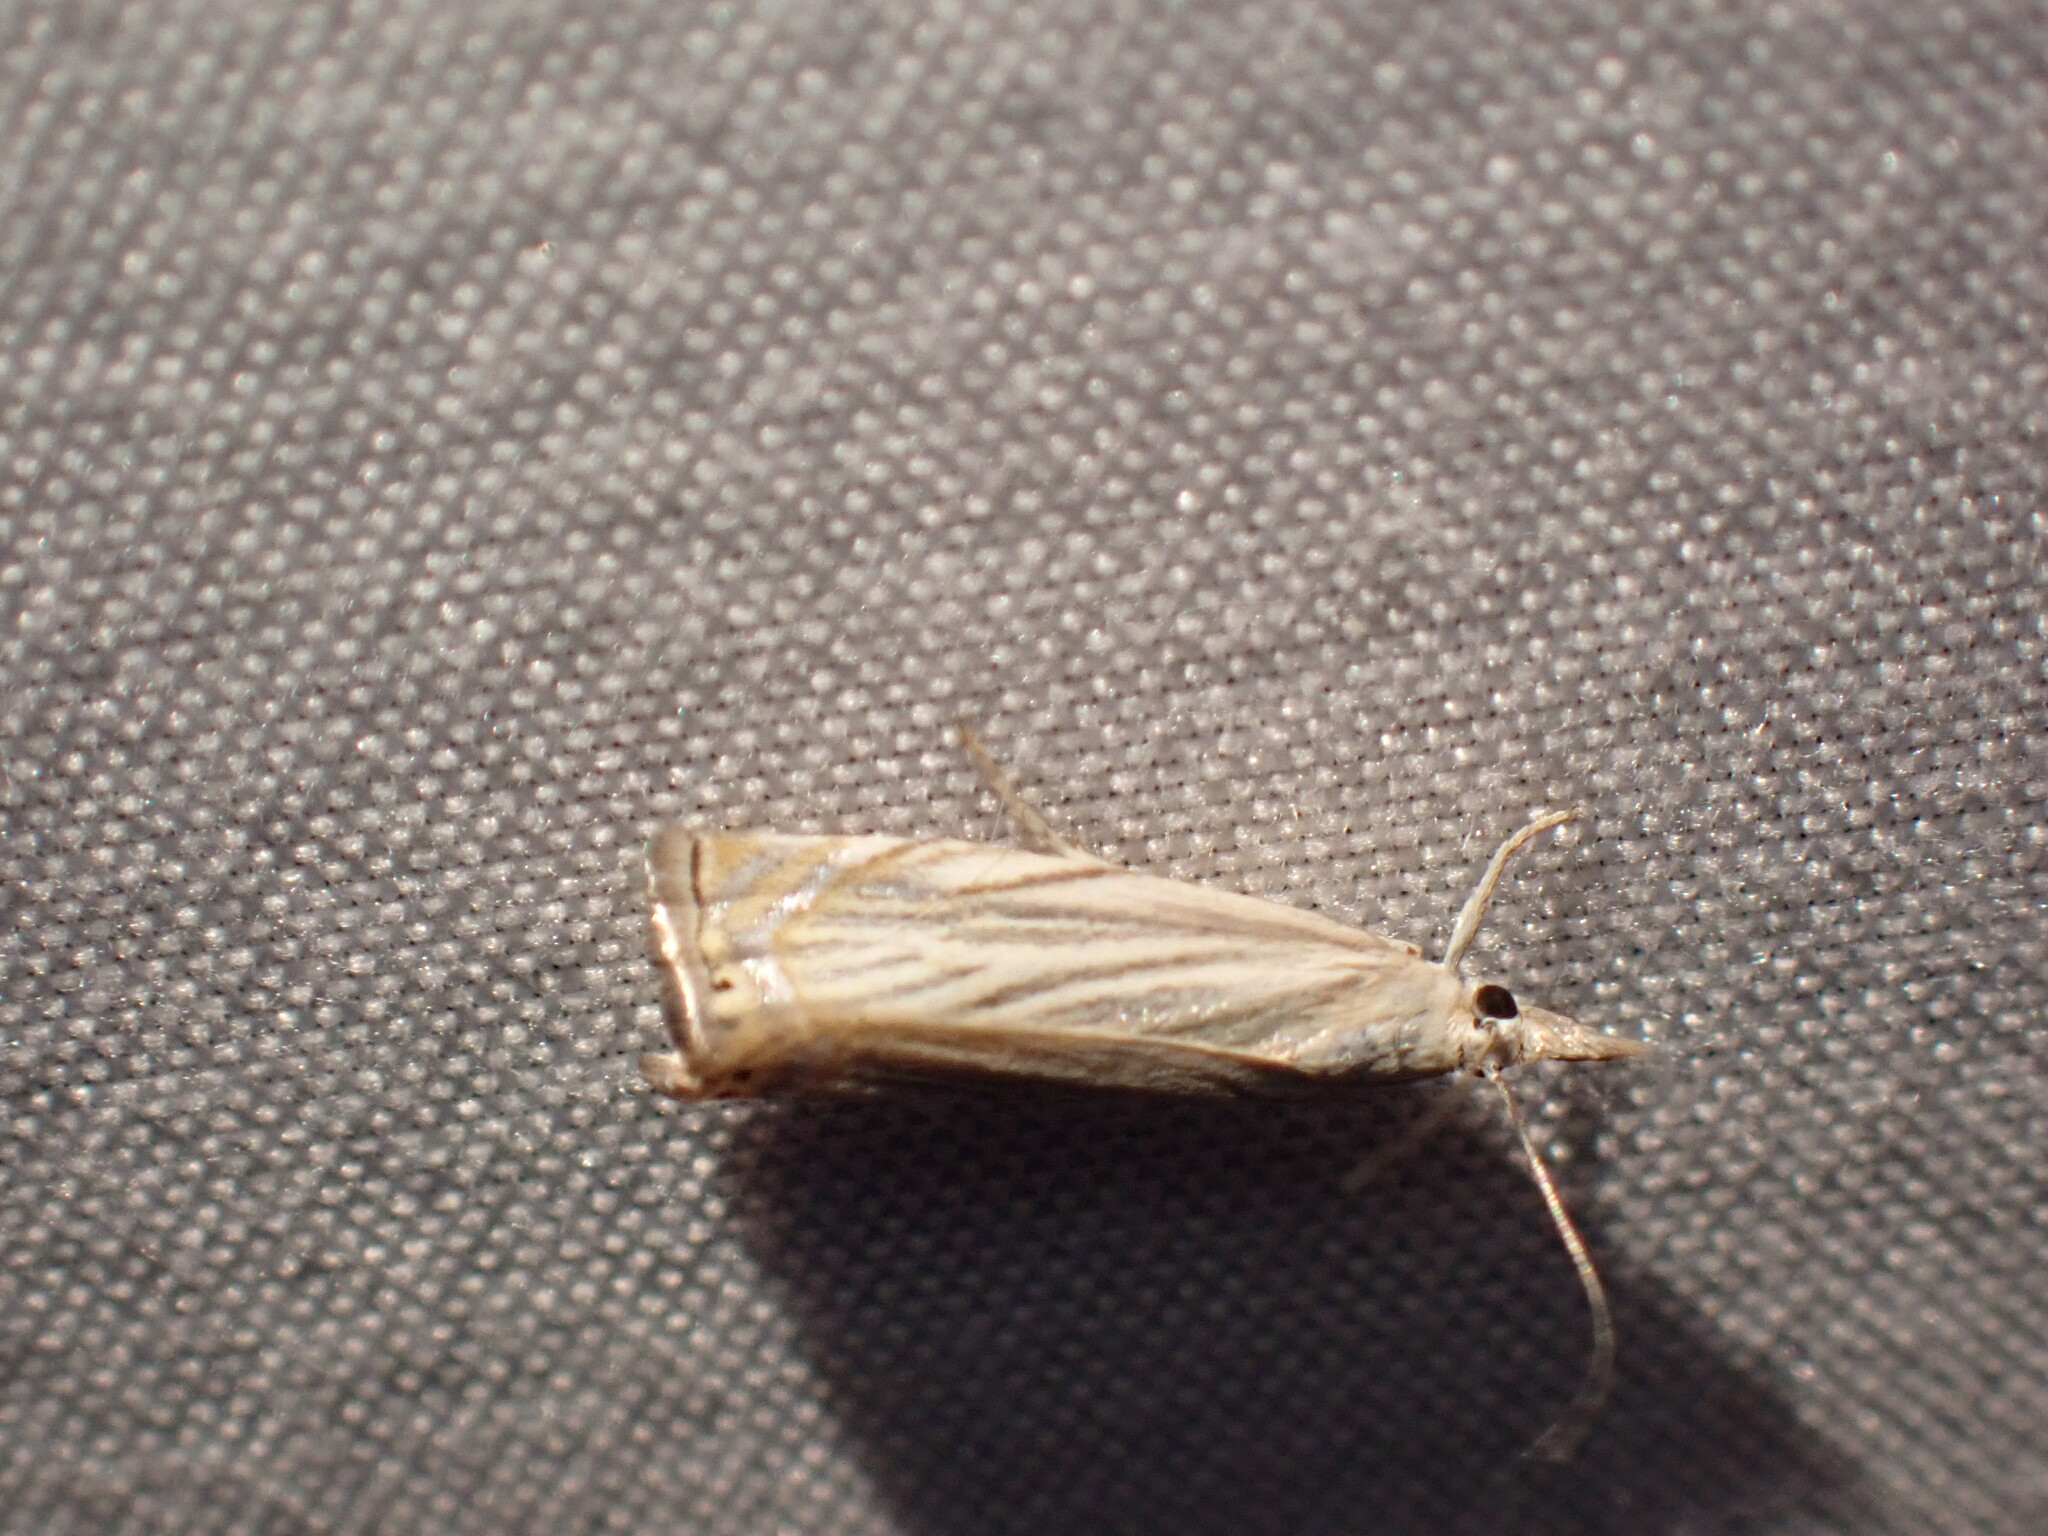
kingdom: Animalia
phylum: Arthropoda
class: Insecta
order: Lepidoptera
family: Crambidae
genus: Chrysoteuchia
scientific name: Chrysoteuchia topiarius
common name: Topiary grass-veneer
